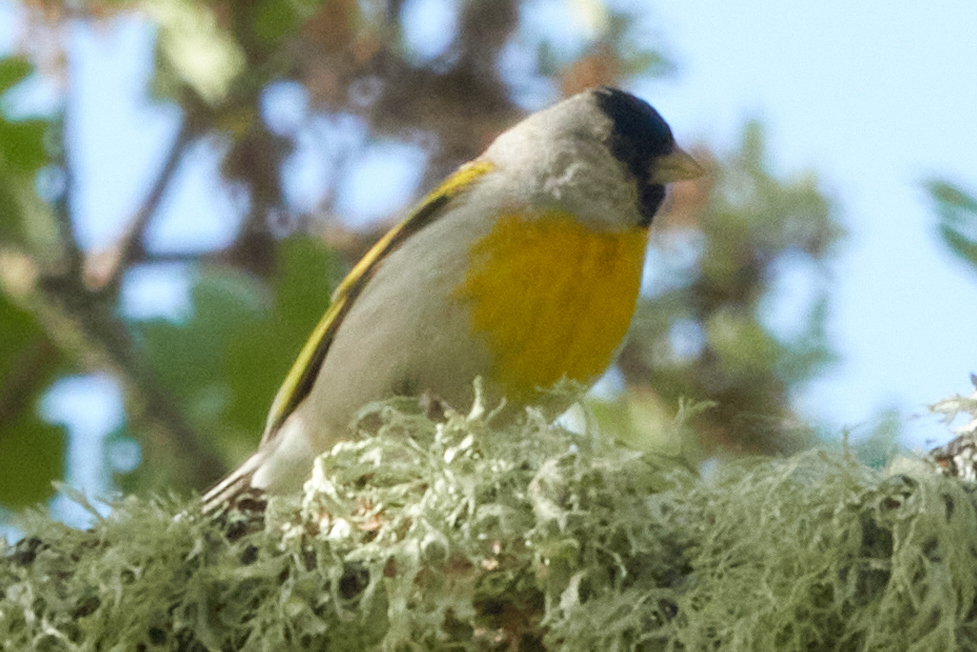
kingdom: Animalia
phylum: Chordata
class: Aves
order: Passeriformes
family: Fringillidae
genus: Spinus
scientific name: Spinus lawrencei
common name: Lawrence's goldfinch
